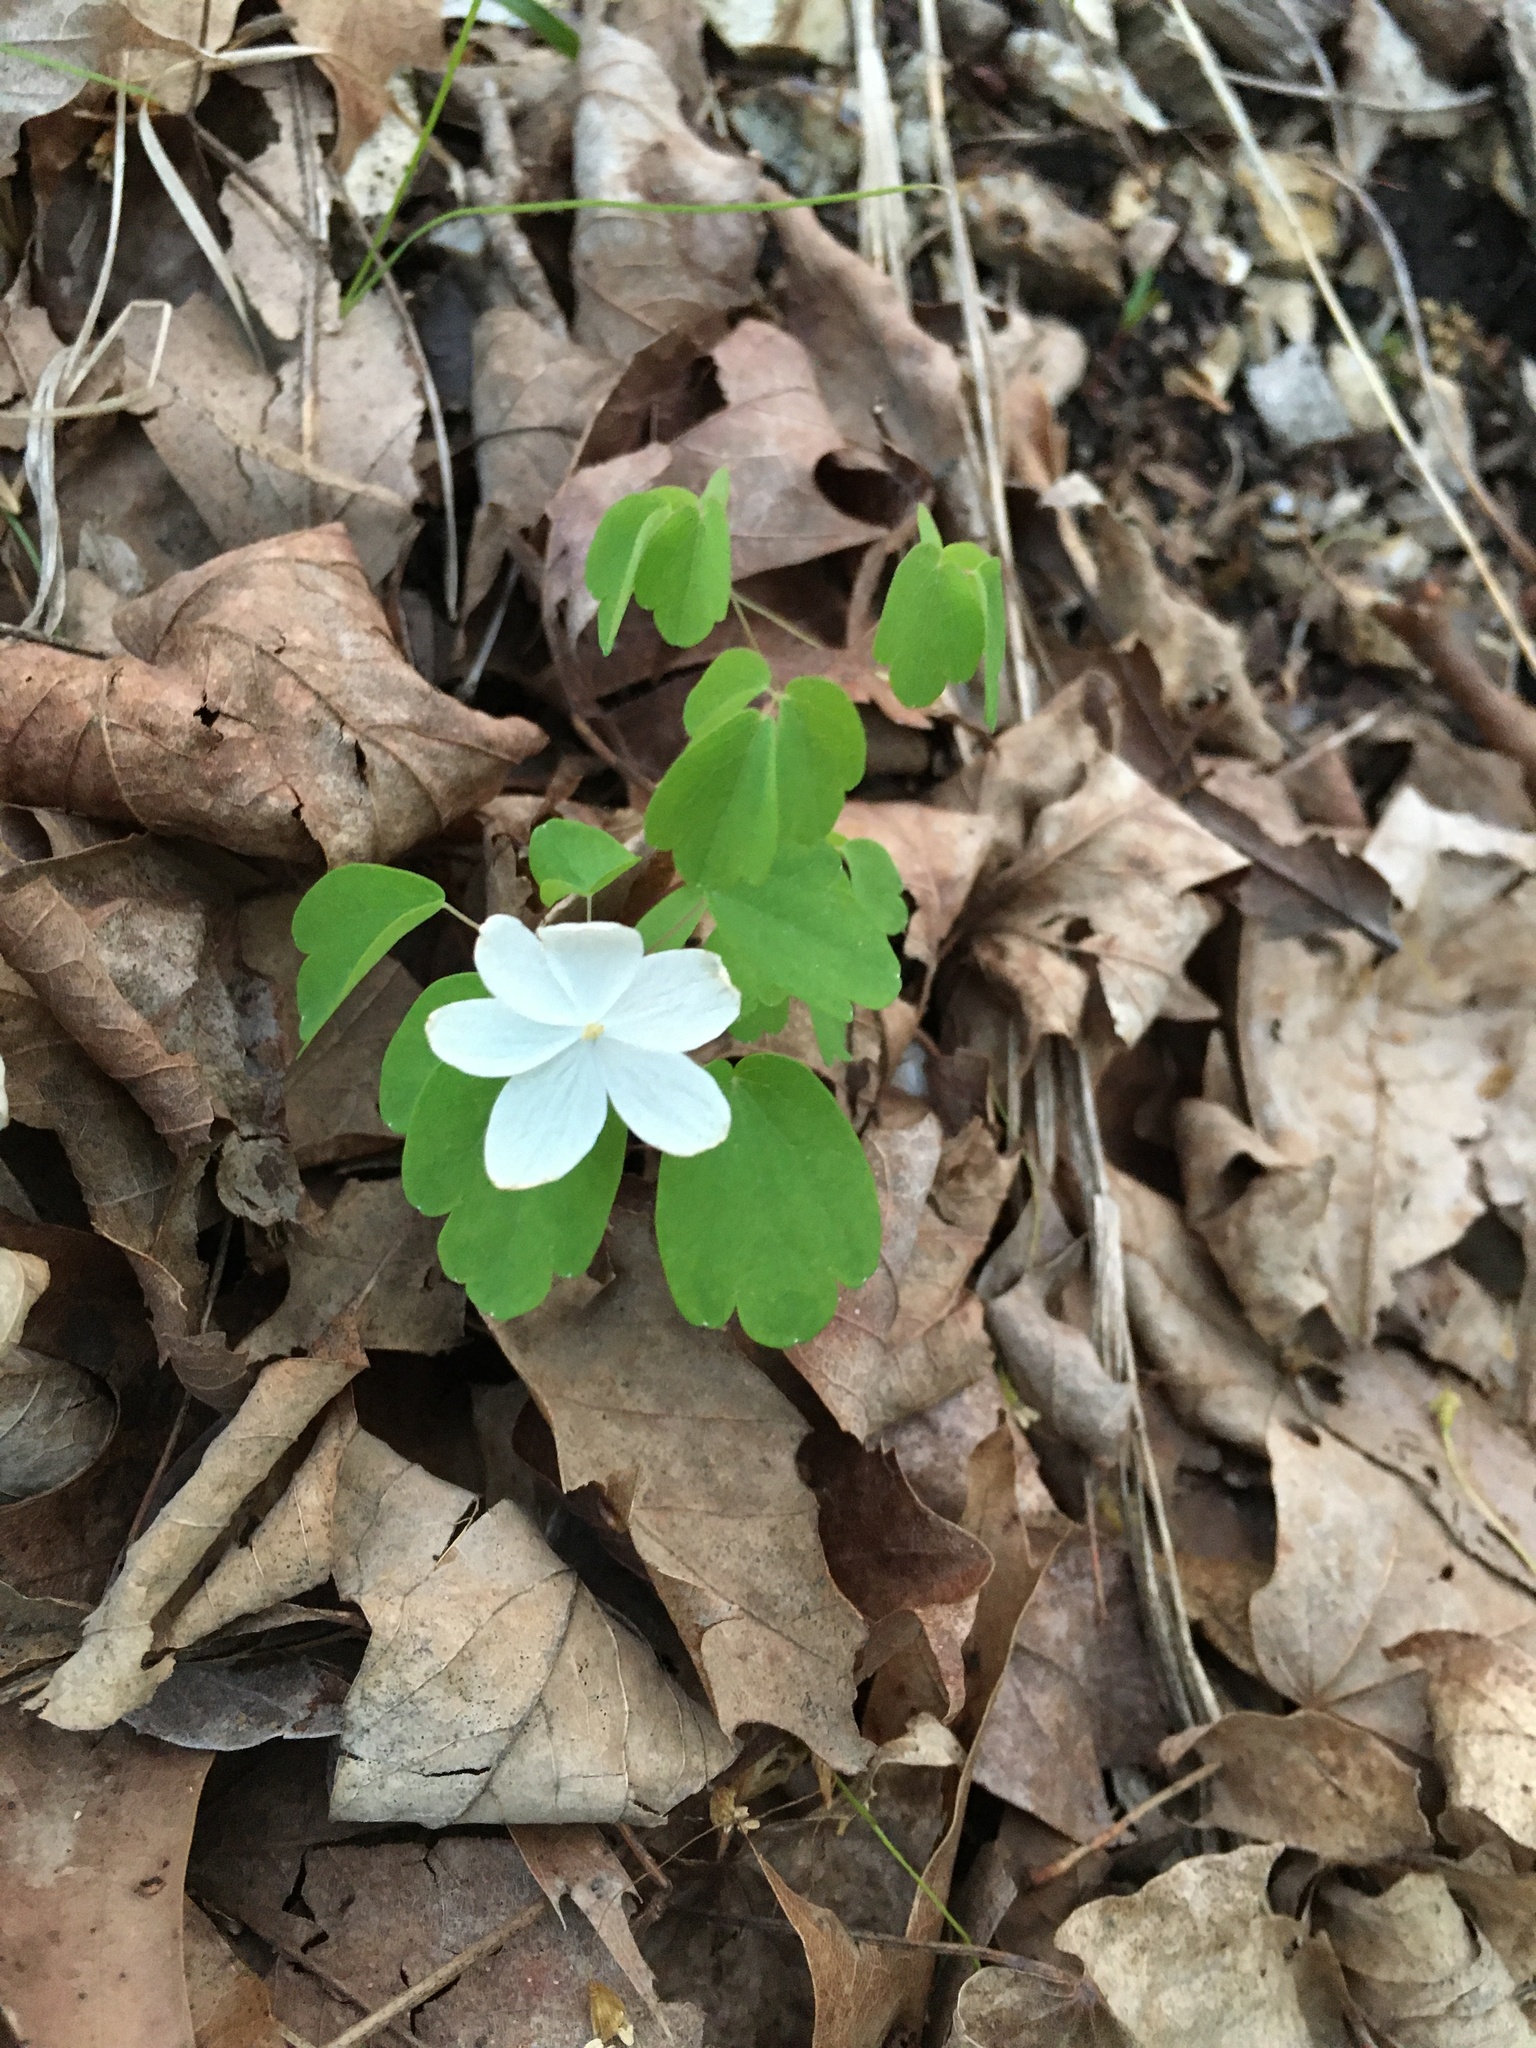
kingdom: Plantae
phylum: Tracheophyta
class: Magnoliopsida
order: Ranunculales
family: Ranunculaceae
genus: Thalictrum
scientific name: Thalictrum thalictroides
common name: Rue-anemone
